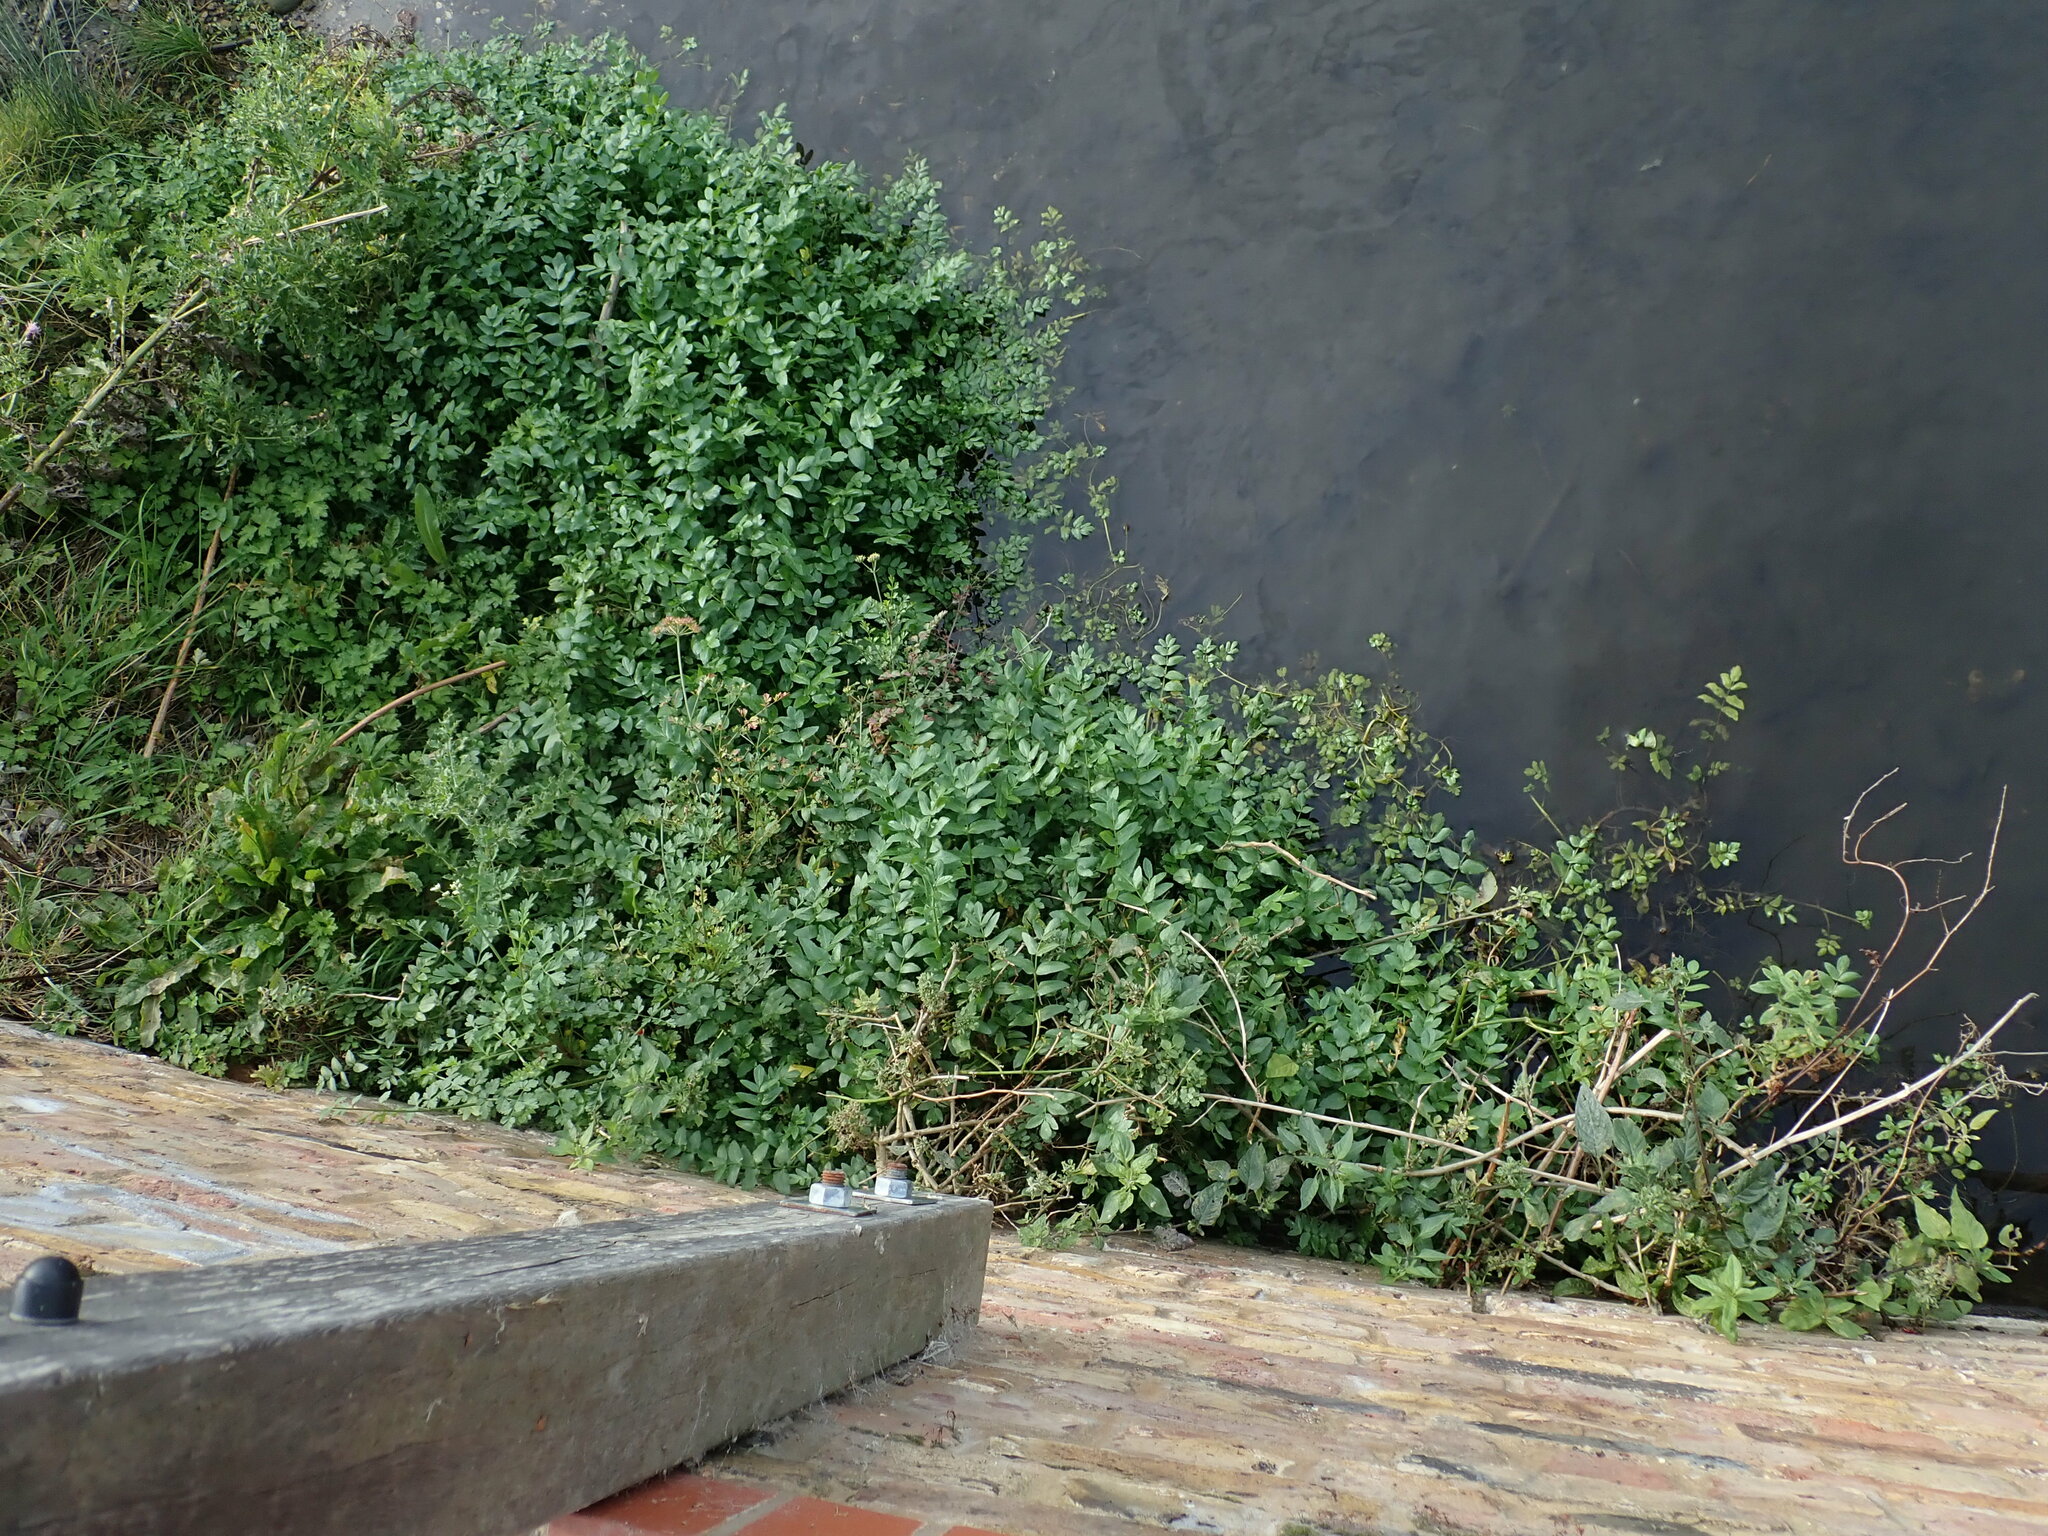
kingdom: Plantae
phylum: Tracheophyta
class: Magnoliopsida
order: Apiales
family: Apiaceae
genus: Helosciadium
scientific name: Helosciadium nodiflorum
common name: Fool's-watercress
